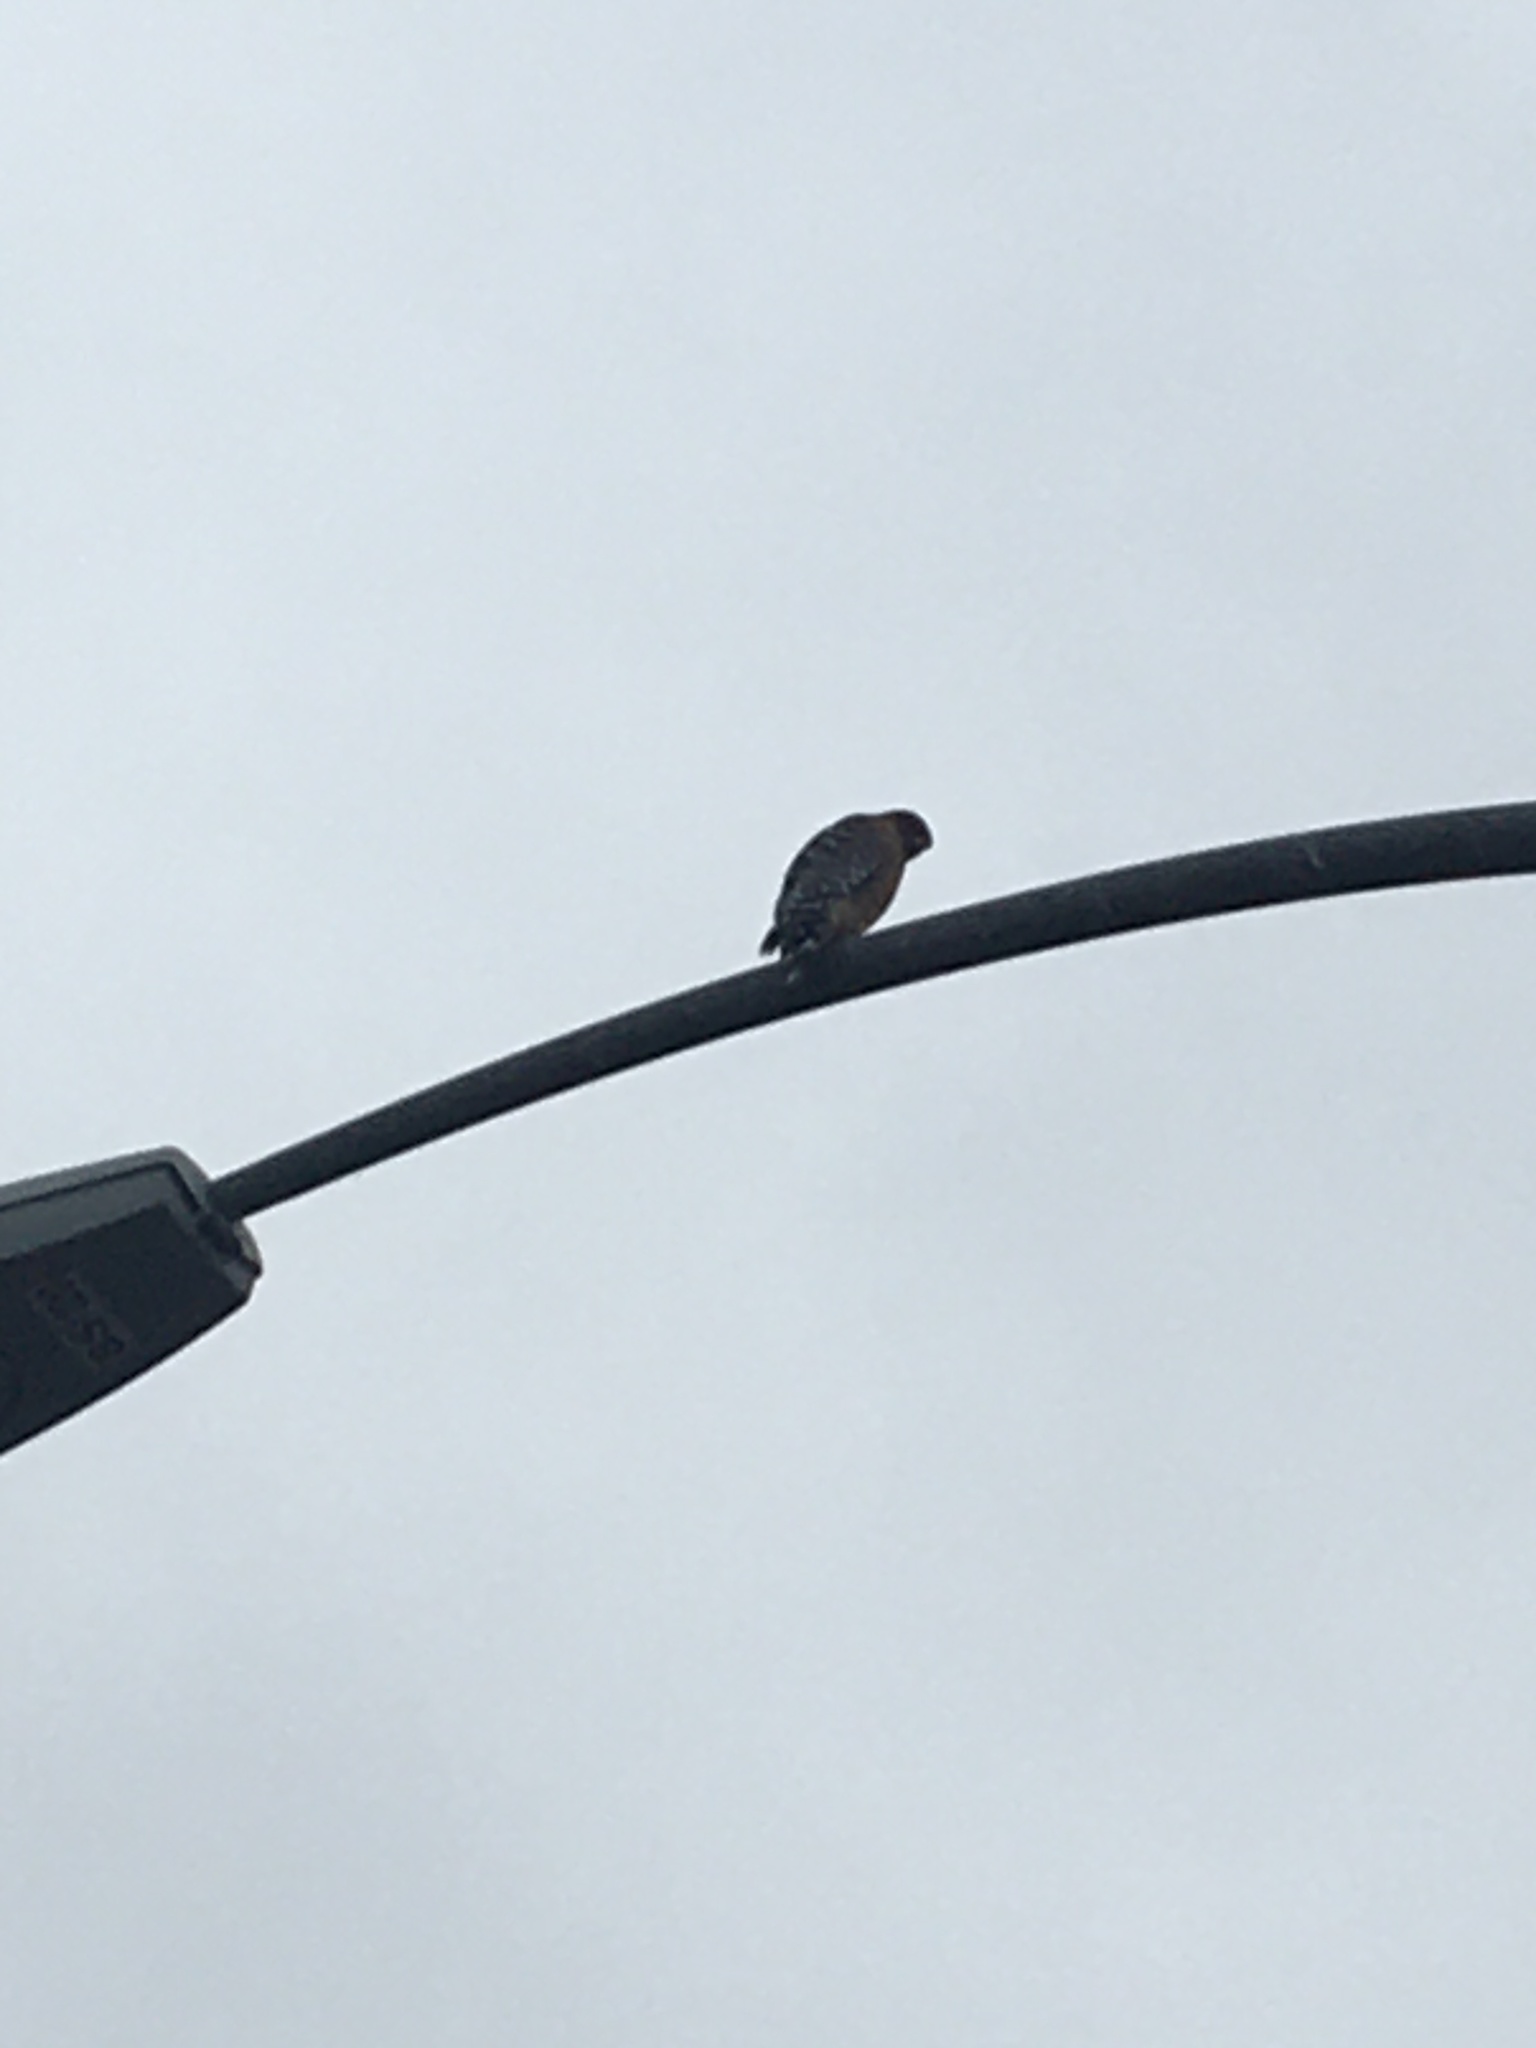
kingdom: Animalia
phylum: Chordata
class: Aves
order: Accipitriformes
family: Accipitridae
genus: Buteo
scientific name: Buteo lineatus
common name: Red-shouldered hawk
